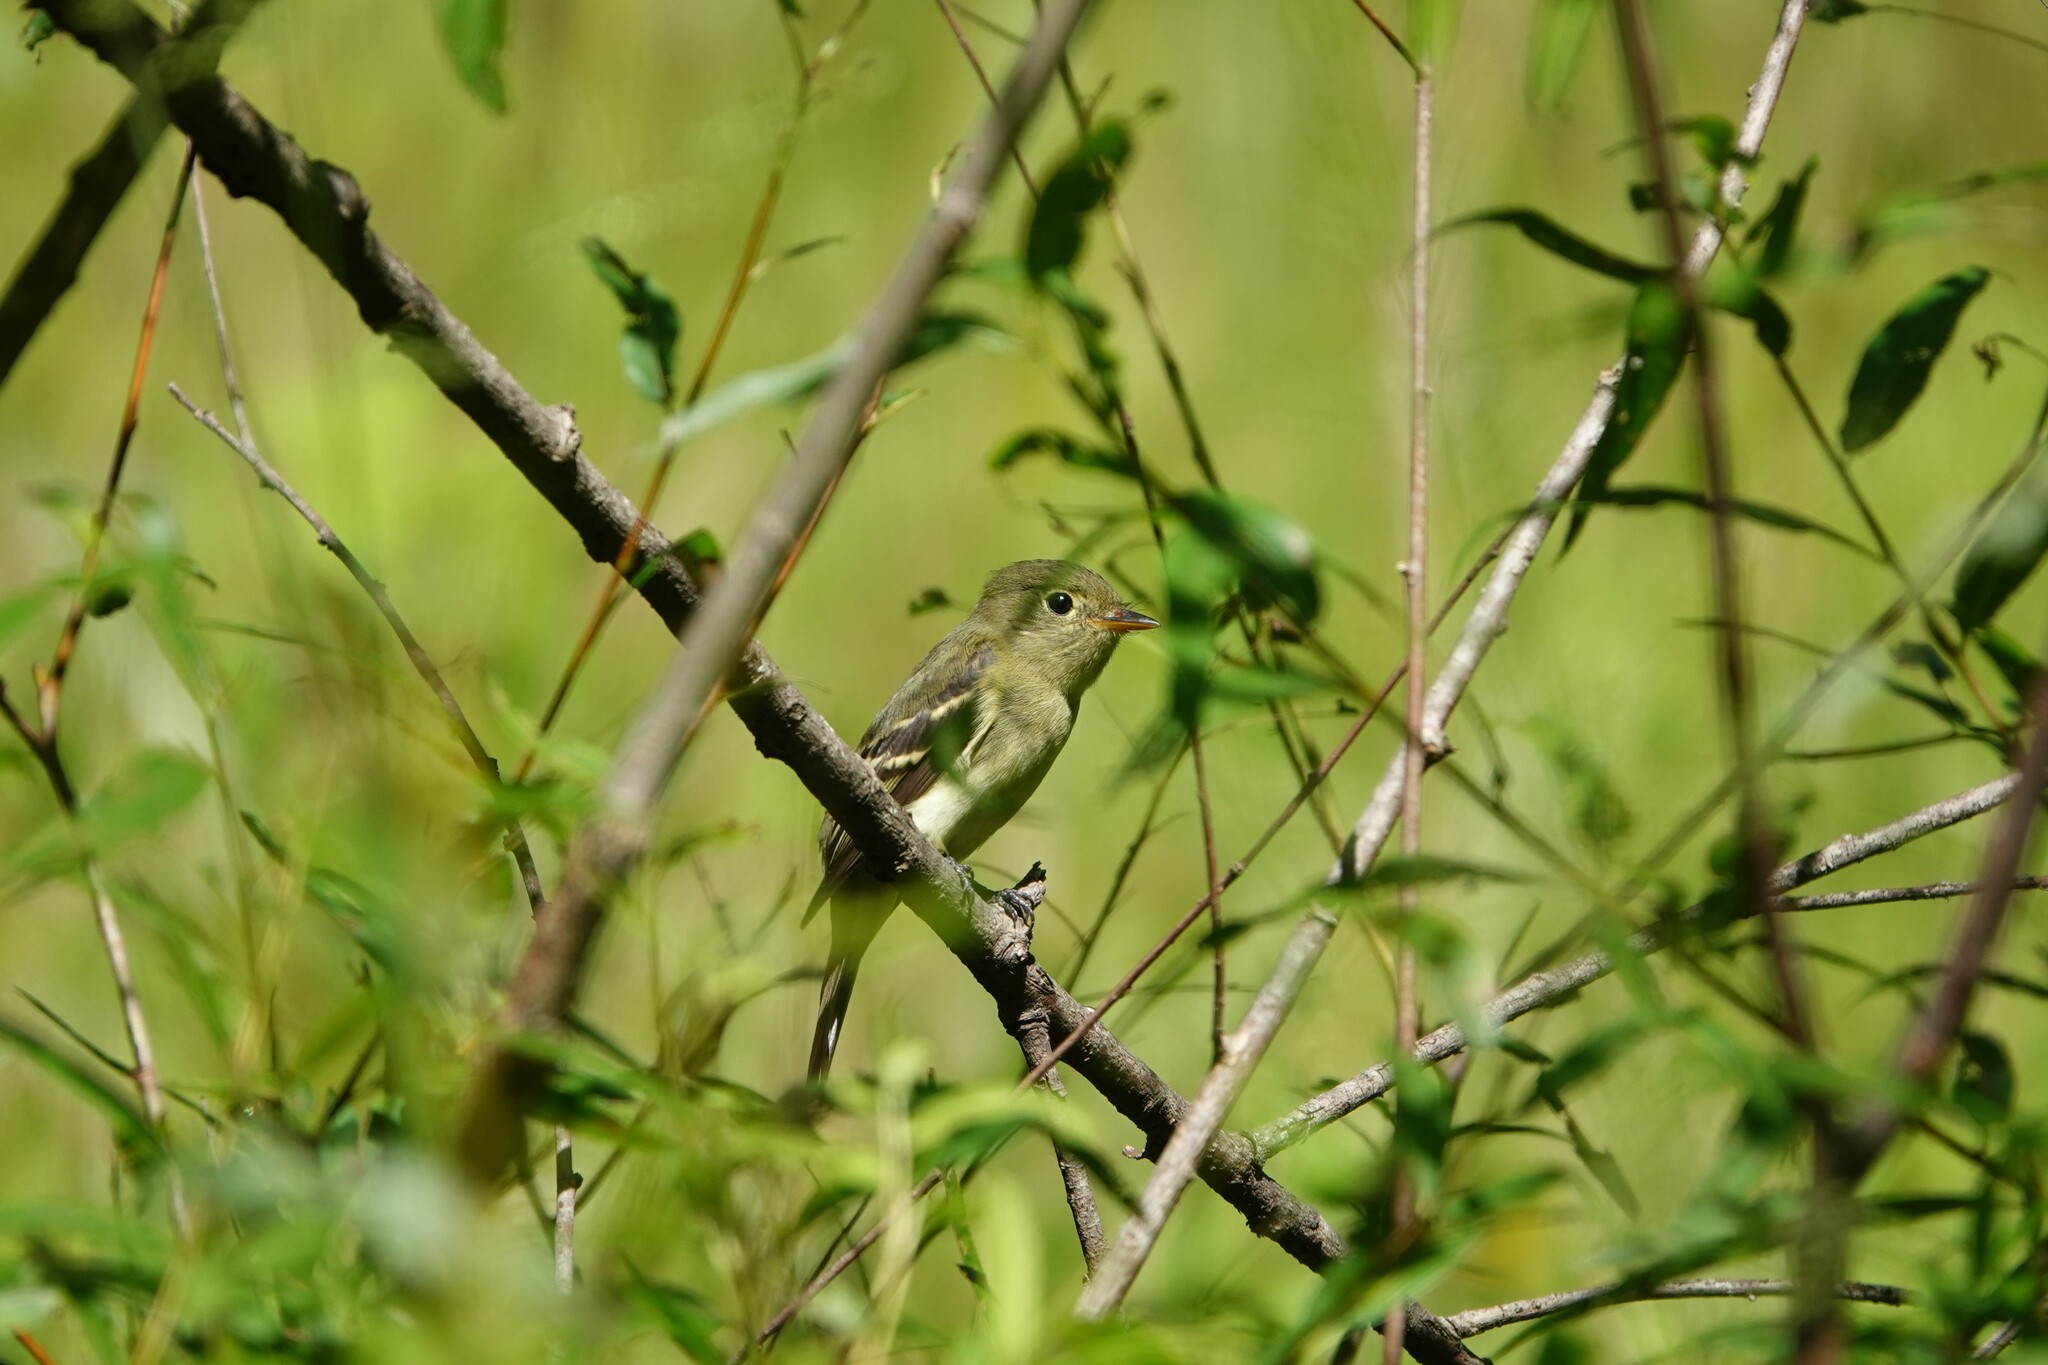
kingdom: Animalia
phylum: Chordata
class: Aves
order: Passeriformes
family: Tyrannidae
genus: Empidonax
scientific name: Empidonax flaviventris
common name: Yellow-bellied flycatcher
